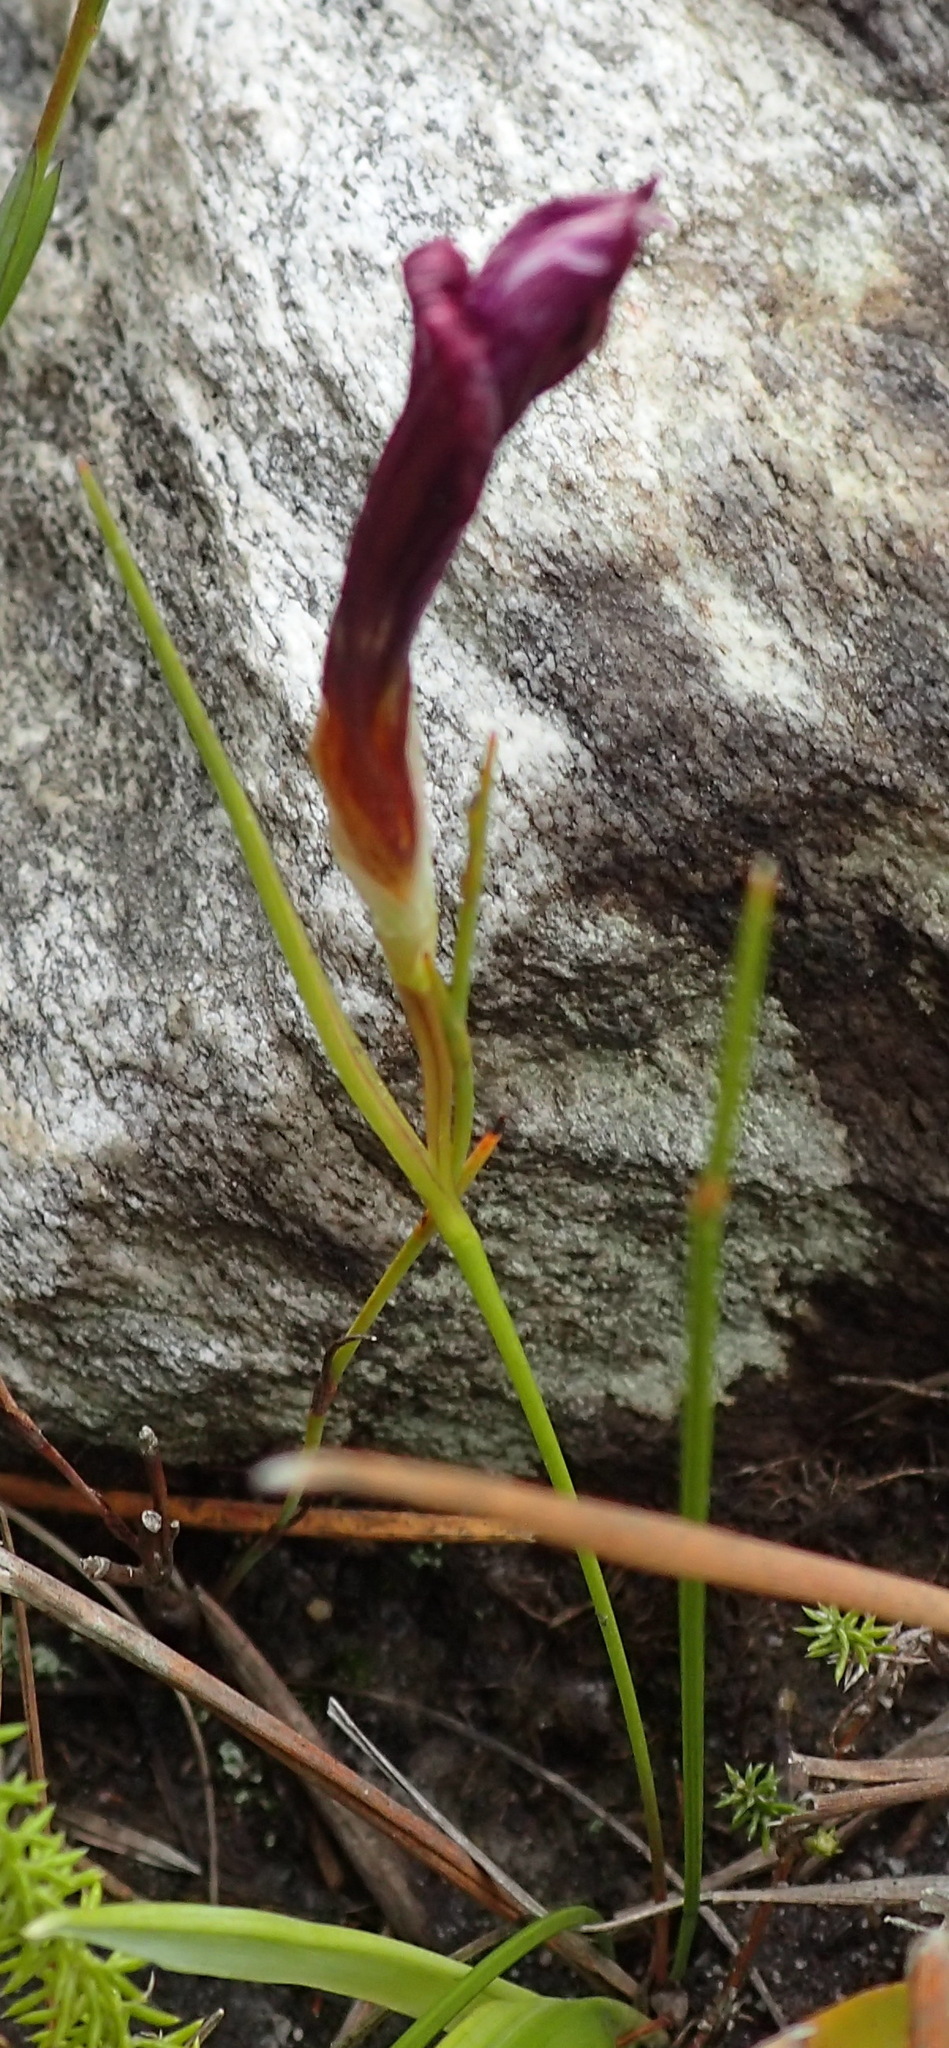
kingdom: Plantae
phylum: Tracheophyta
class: Liliopsida
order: Asparagales
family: Iridaceae
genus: Romulea
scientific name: Romulea cruciata
